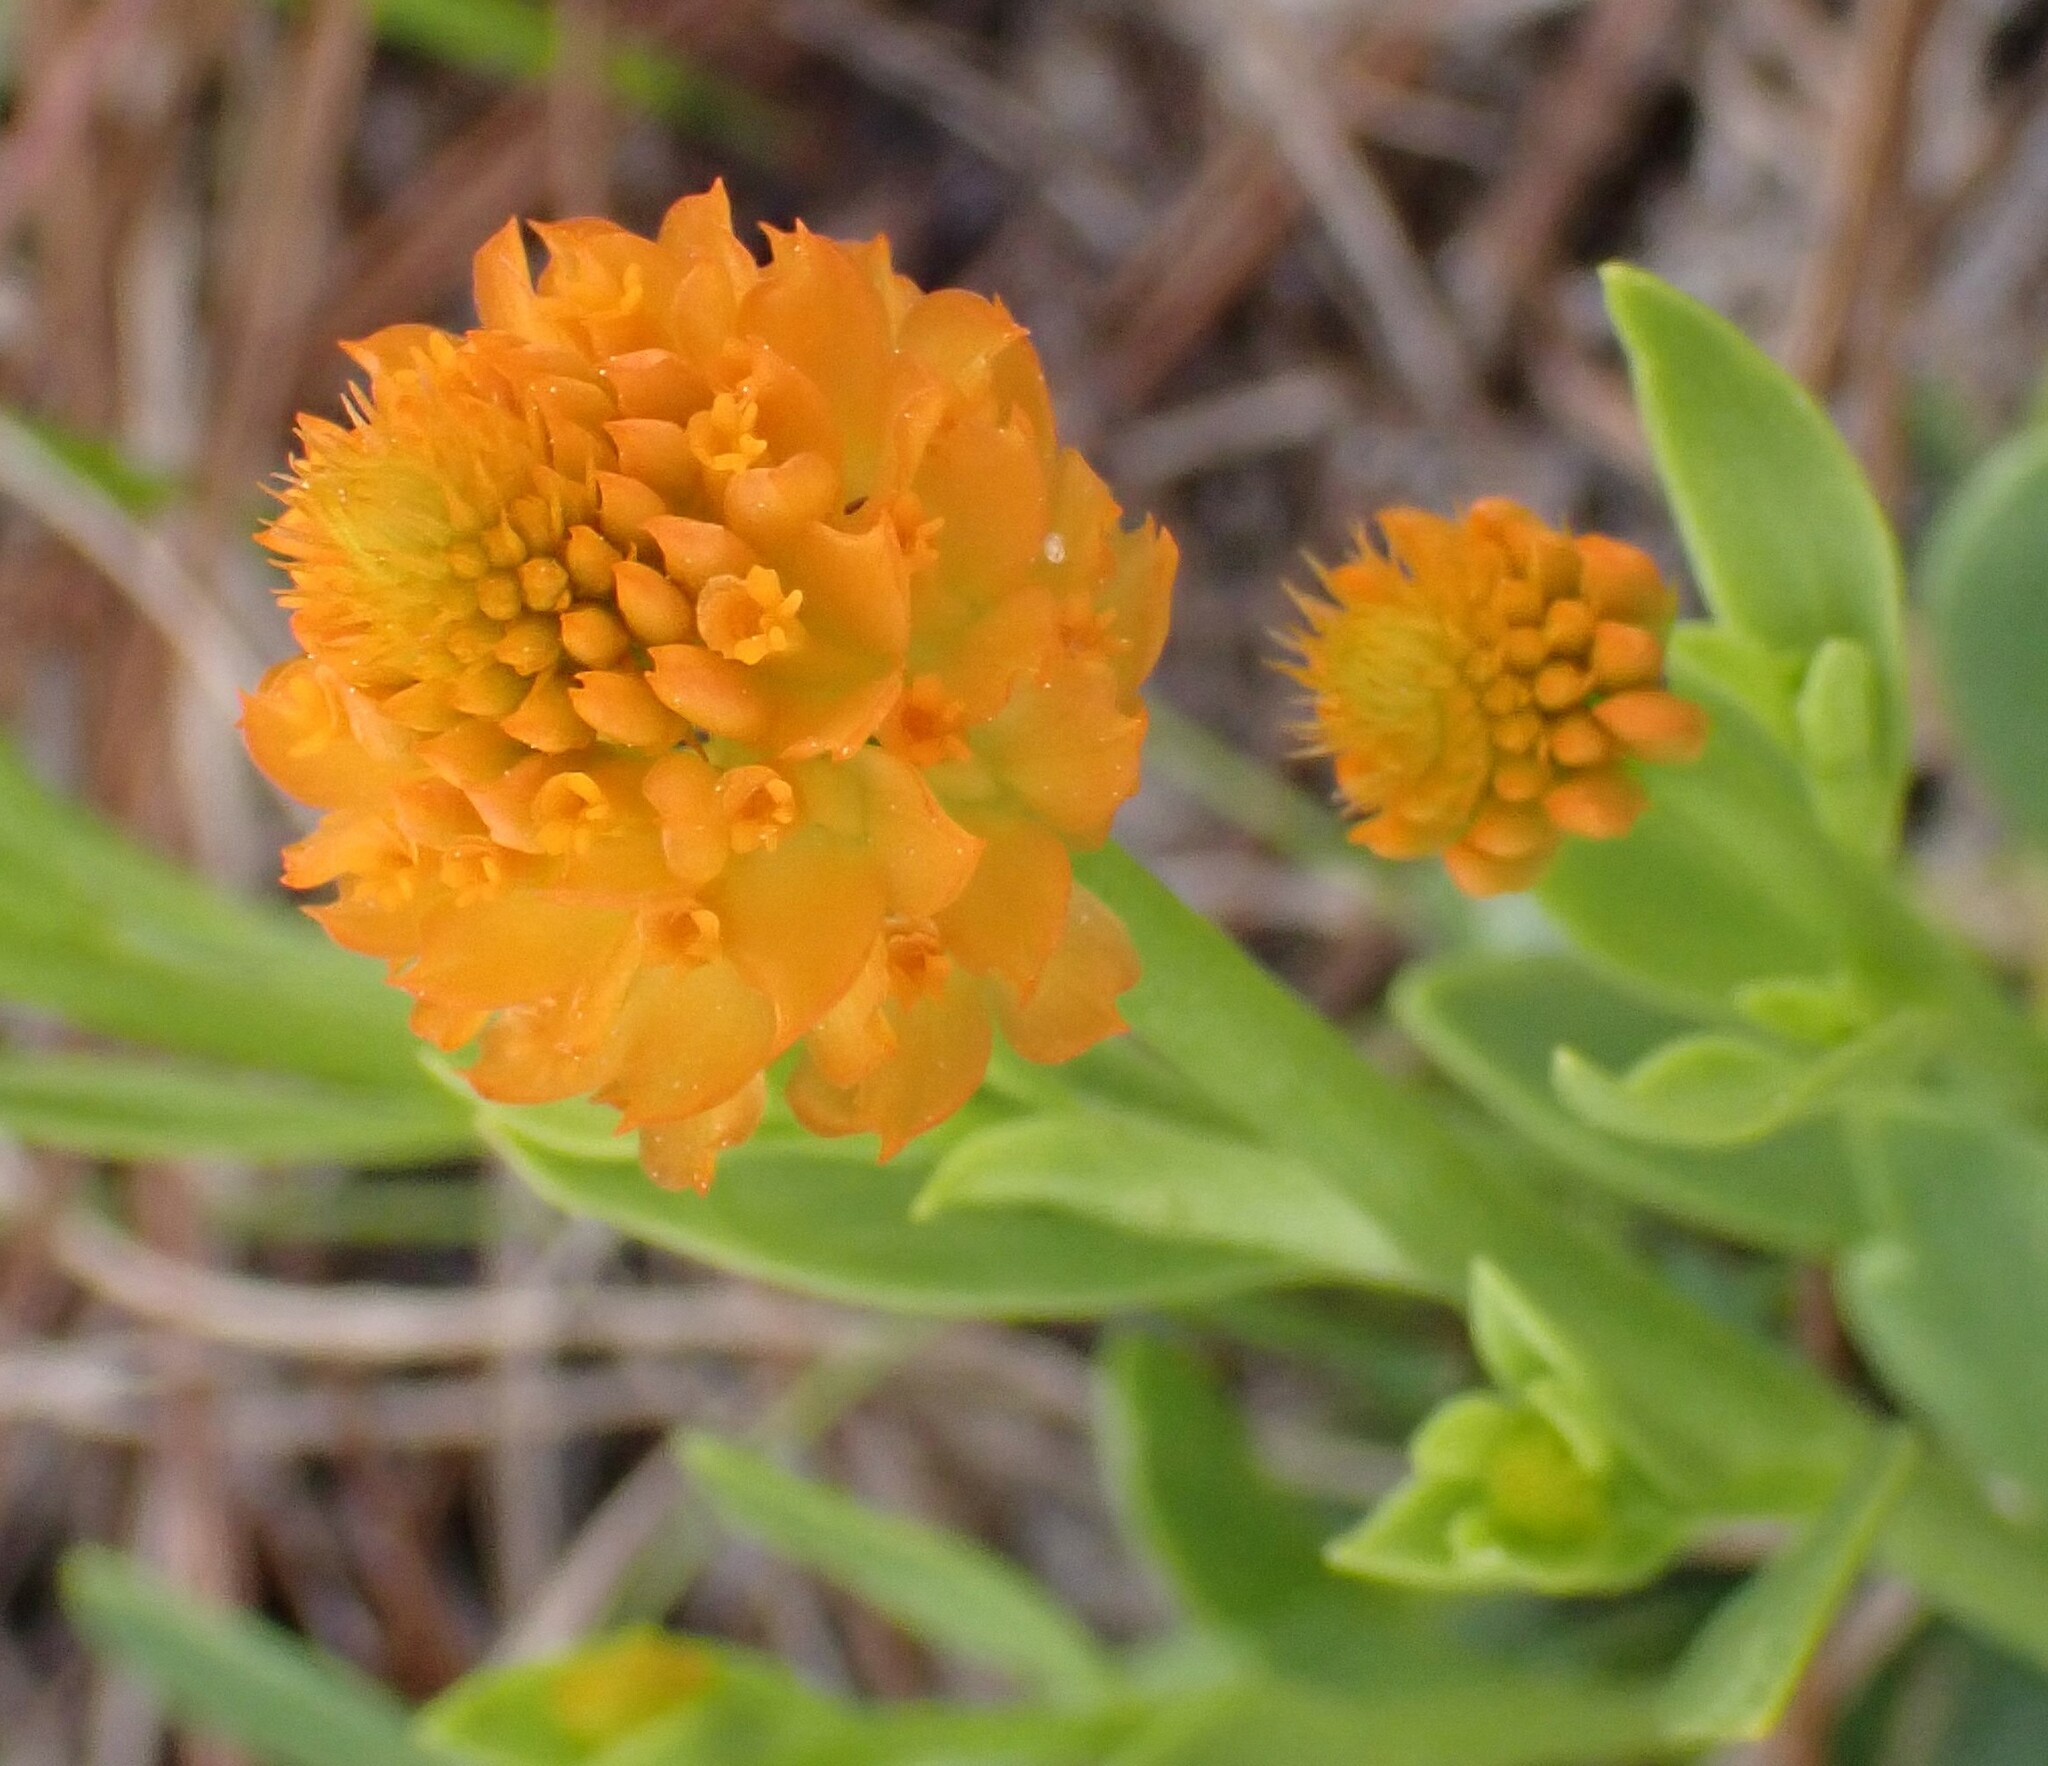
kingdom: Plantae
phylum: Tracheophyta
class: Magnoliopsida
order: Fabales
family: Polygalaceae
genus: Polygala
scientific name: Polygala lutea
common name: Orange milkwort
